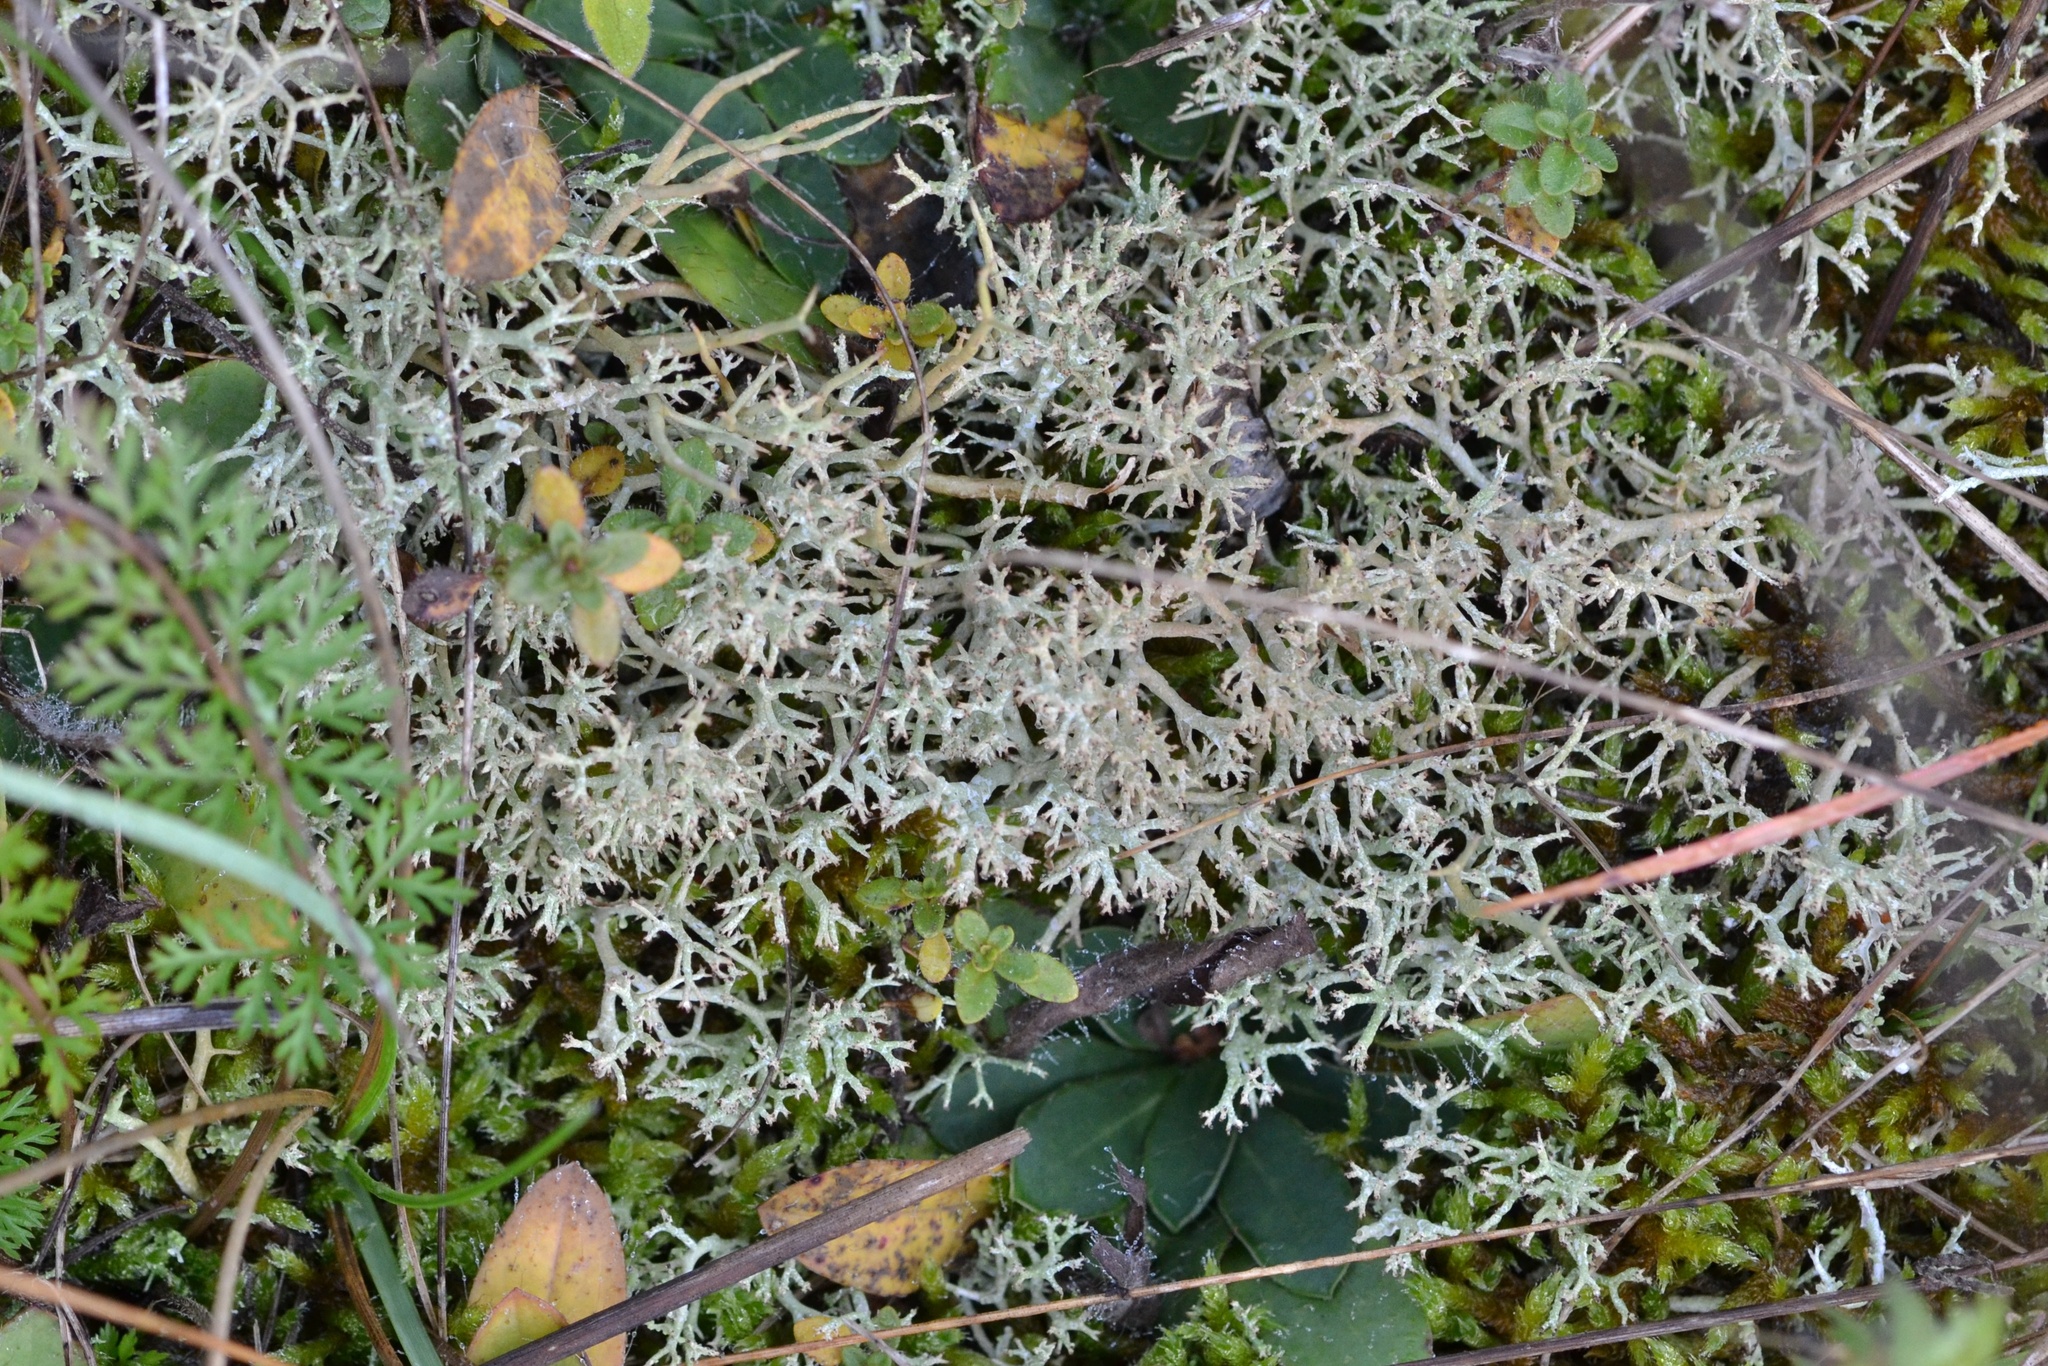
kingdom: Fungi
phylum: Ascomycota
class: Lecanoromycetes
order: Lecanorales
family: Cladoniaceae
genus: Cladonia
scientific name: Cladonia rangiformis
